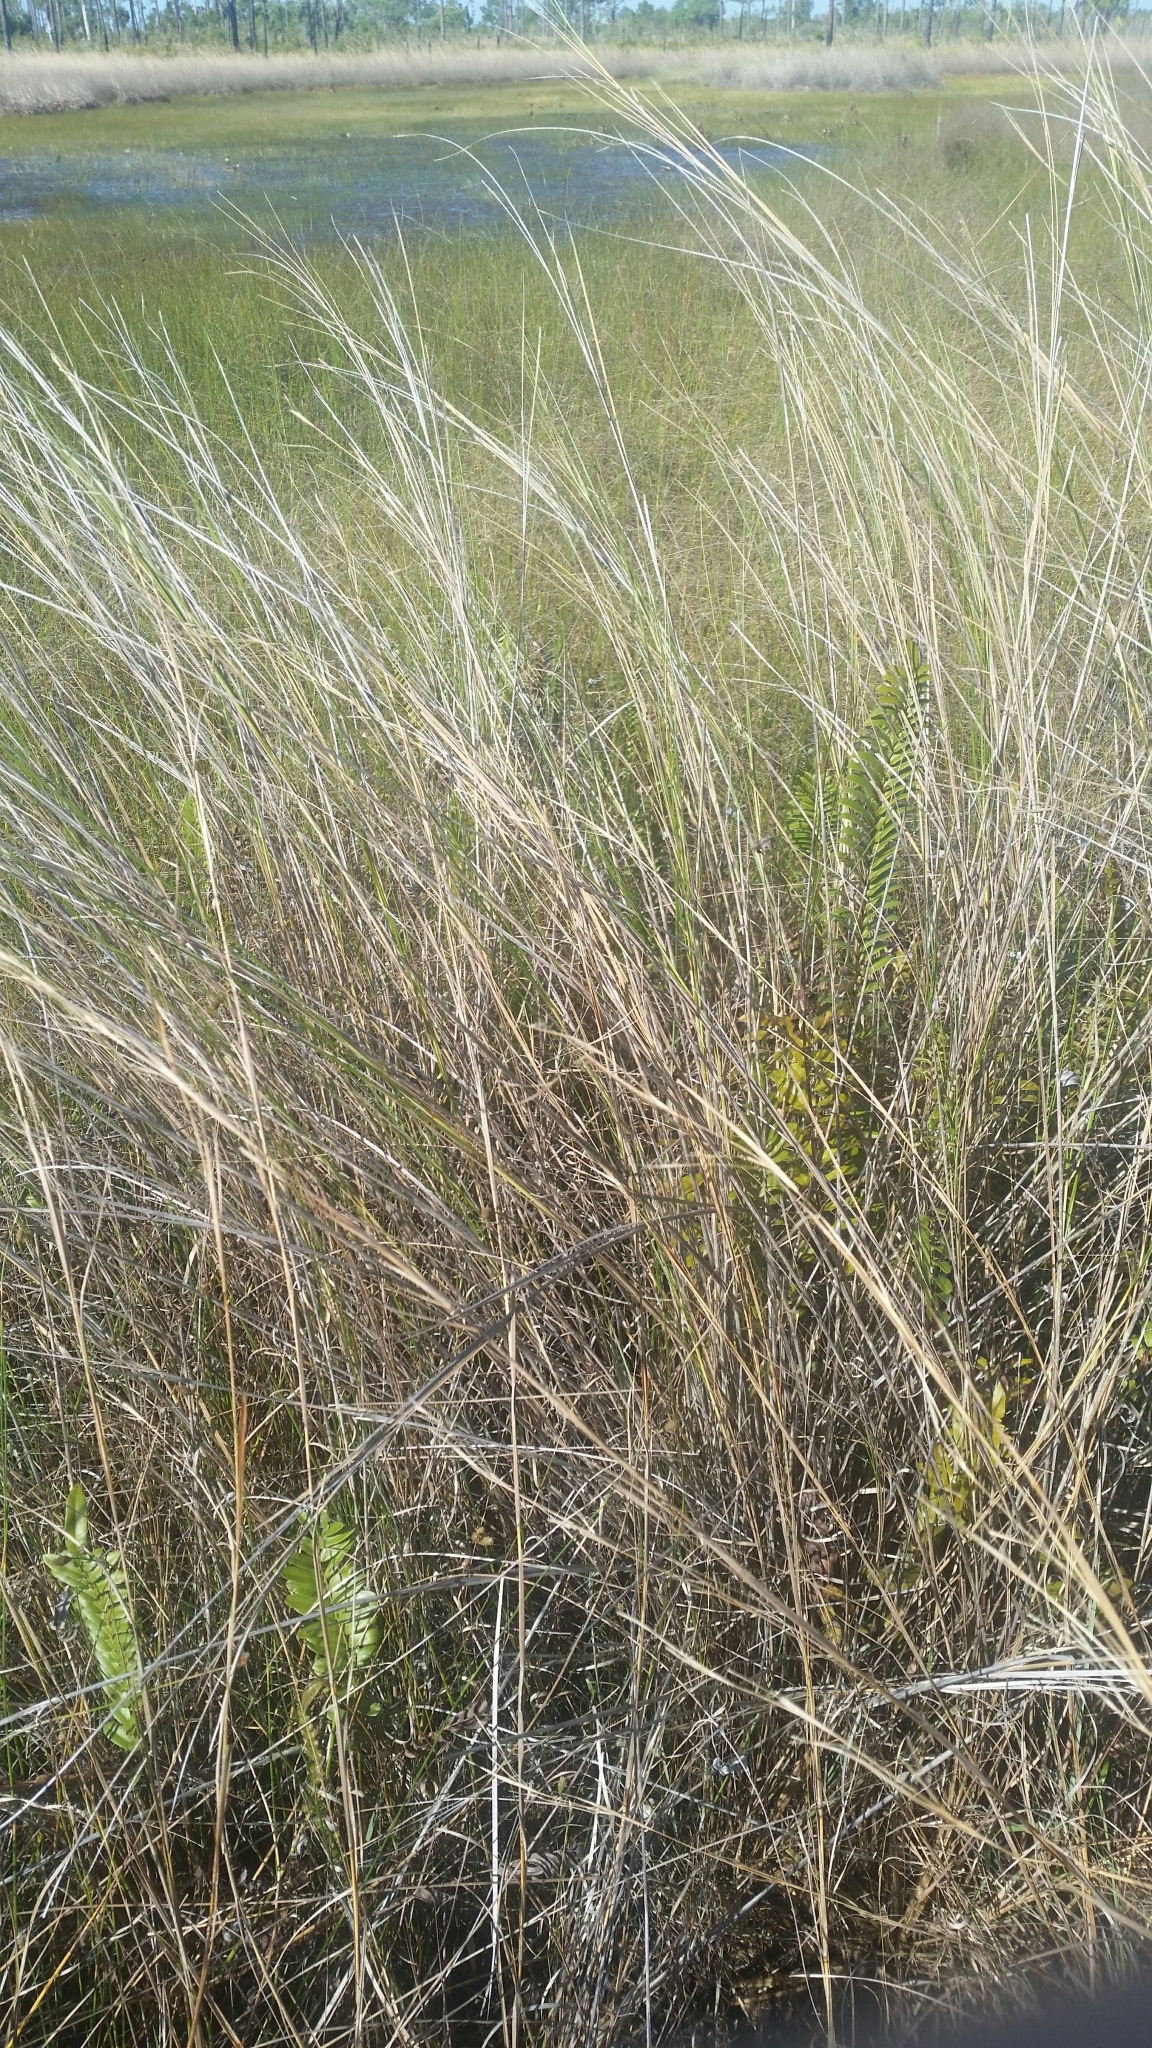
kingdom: Plantae
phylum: Tracheophyta
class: Liliopsida
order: Poales
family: Poaceae
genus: Sporobolus
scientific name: Sporobolus bakeri
